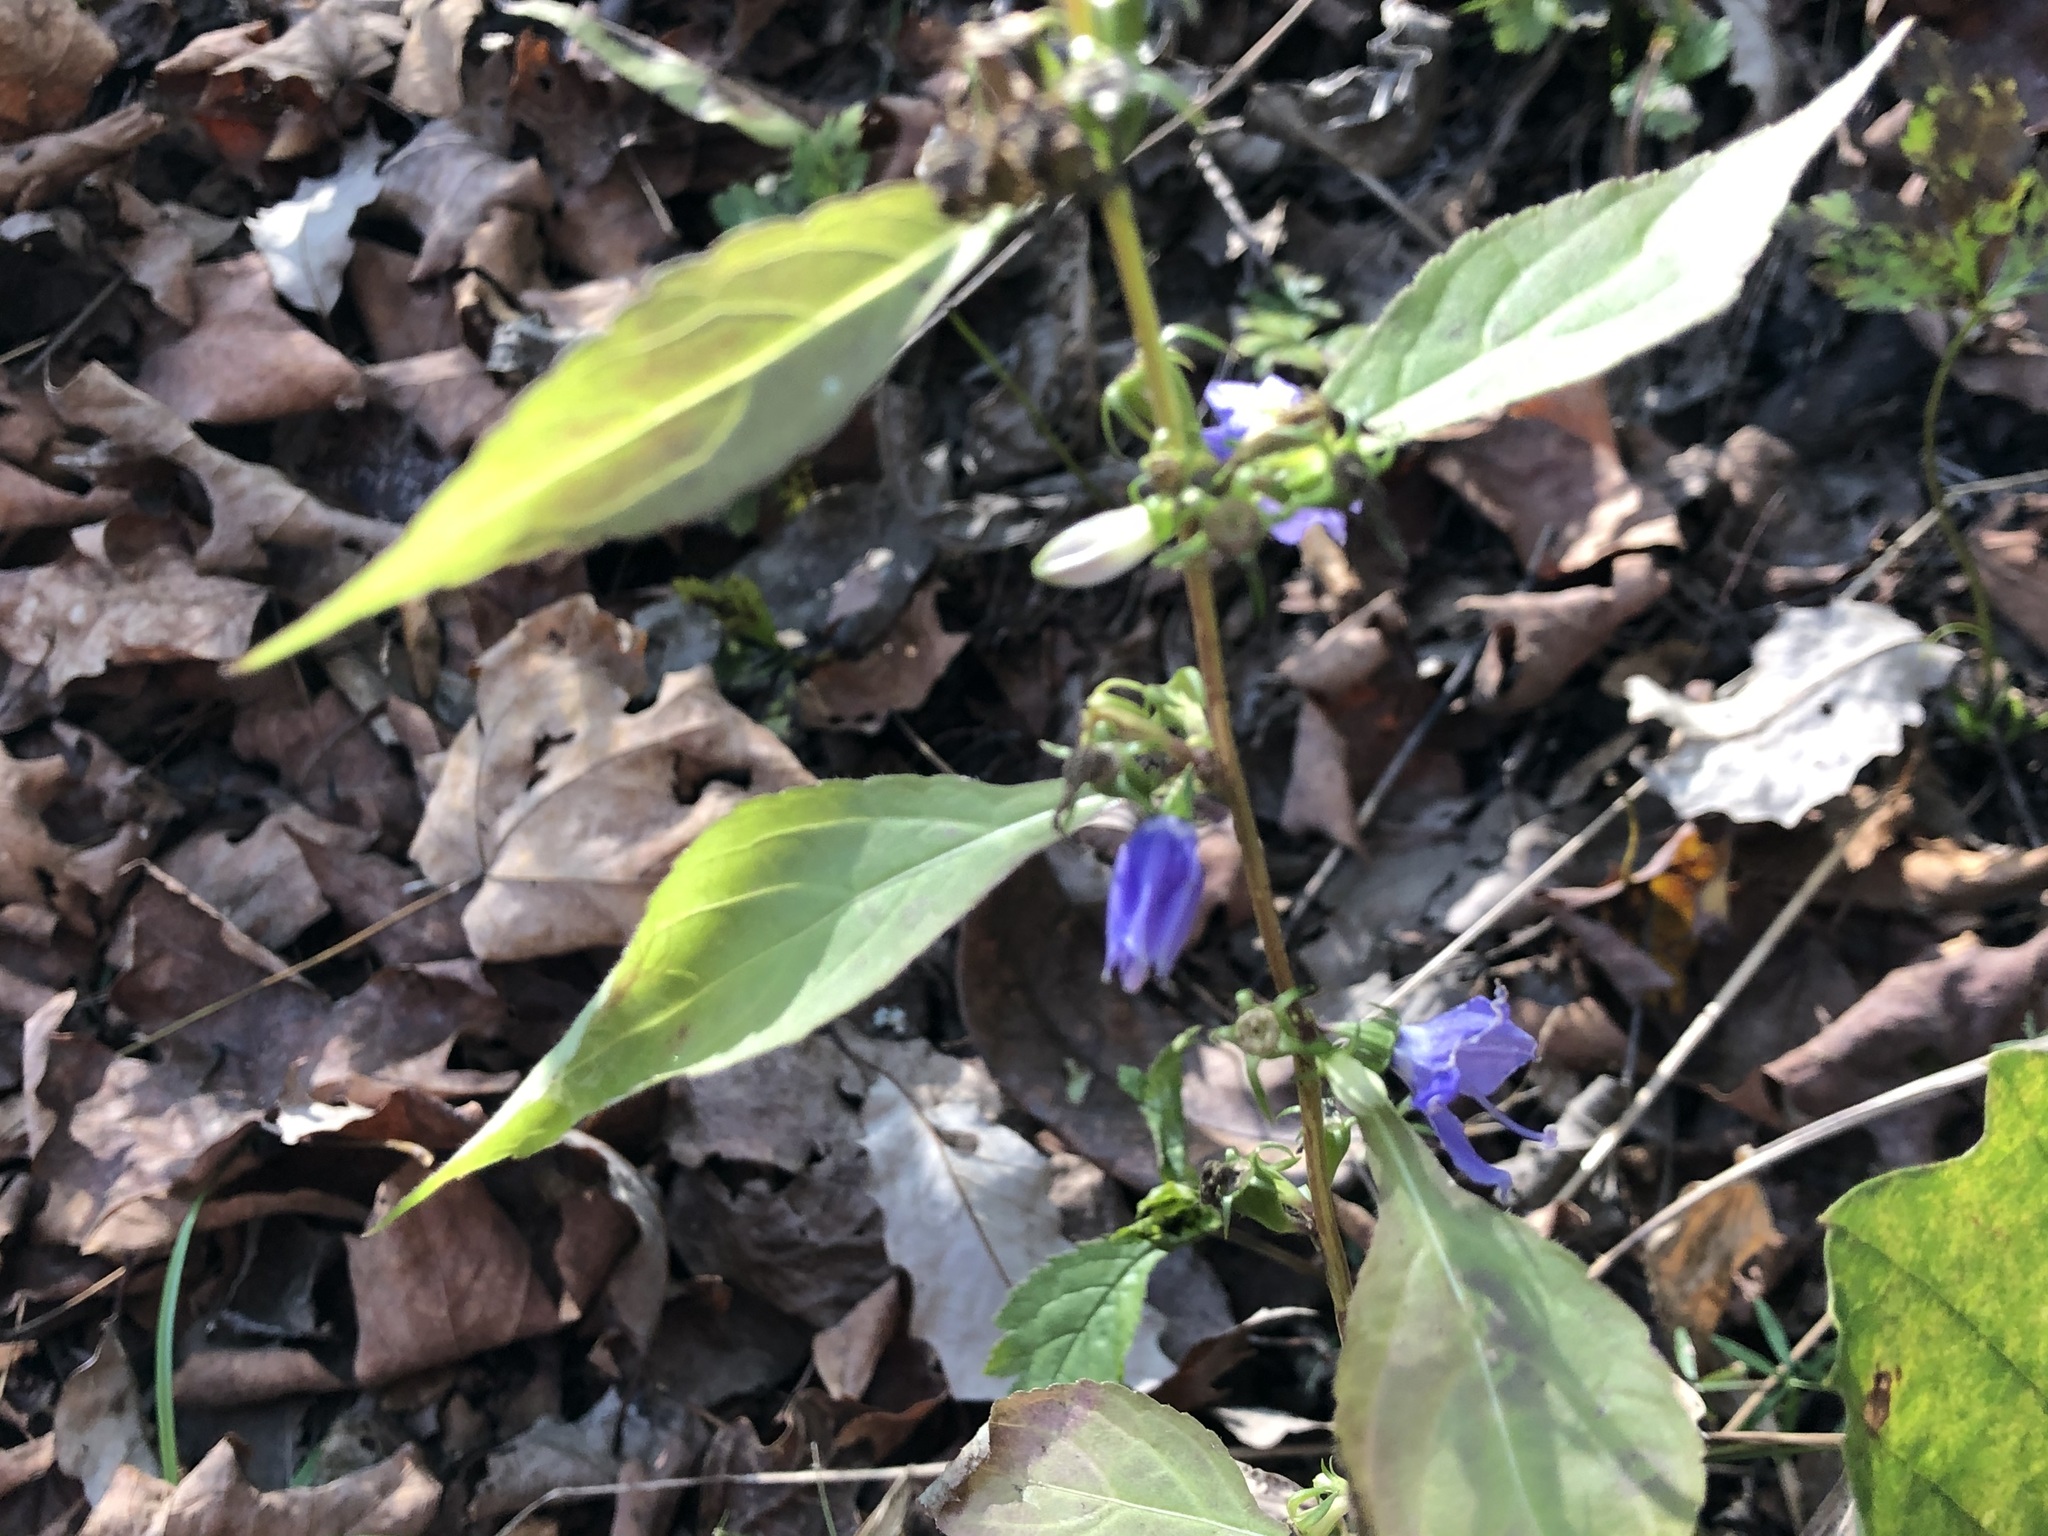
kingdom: Plantae
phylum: Tracheophyta
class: Magnoliopsida
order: Asterales
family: Campanulaceae
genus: Campanulastrum
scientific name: Campanulastrum americanum
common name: American bellflower
